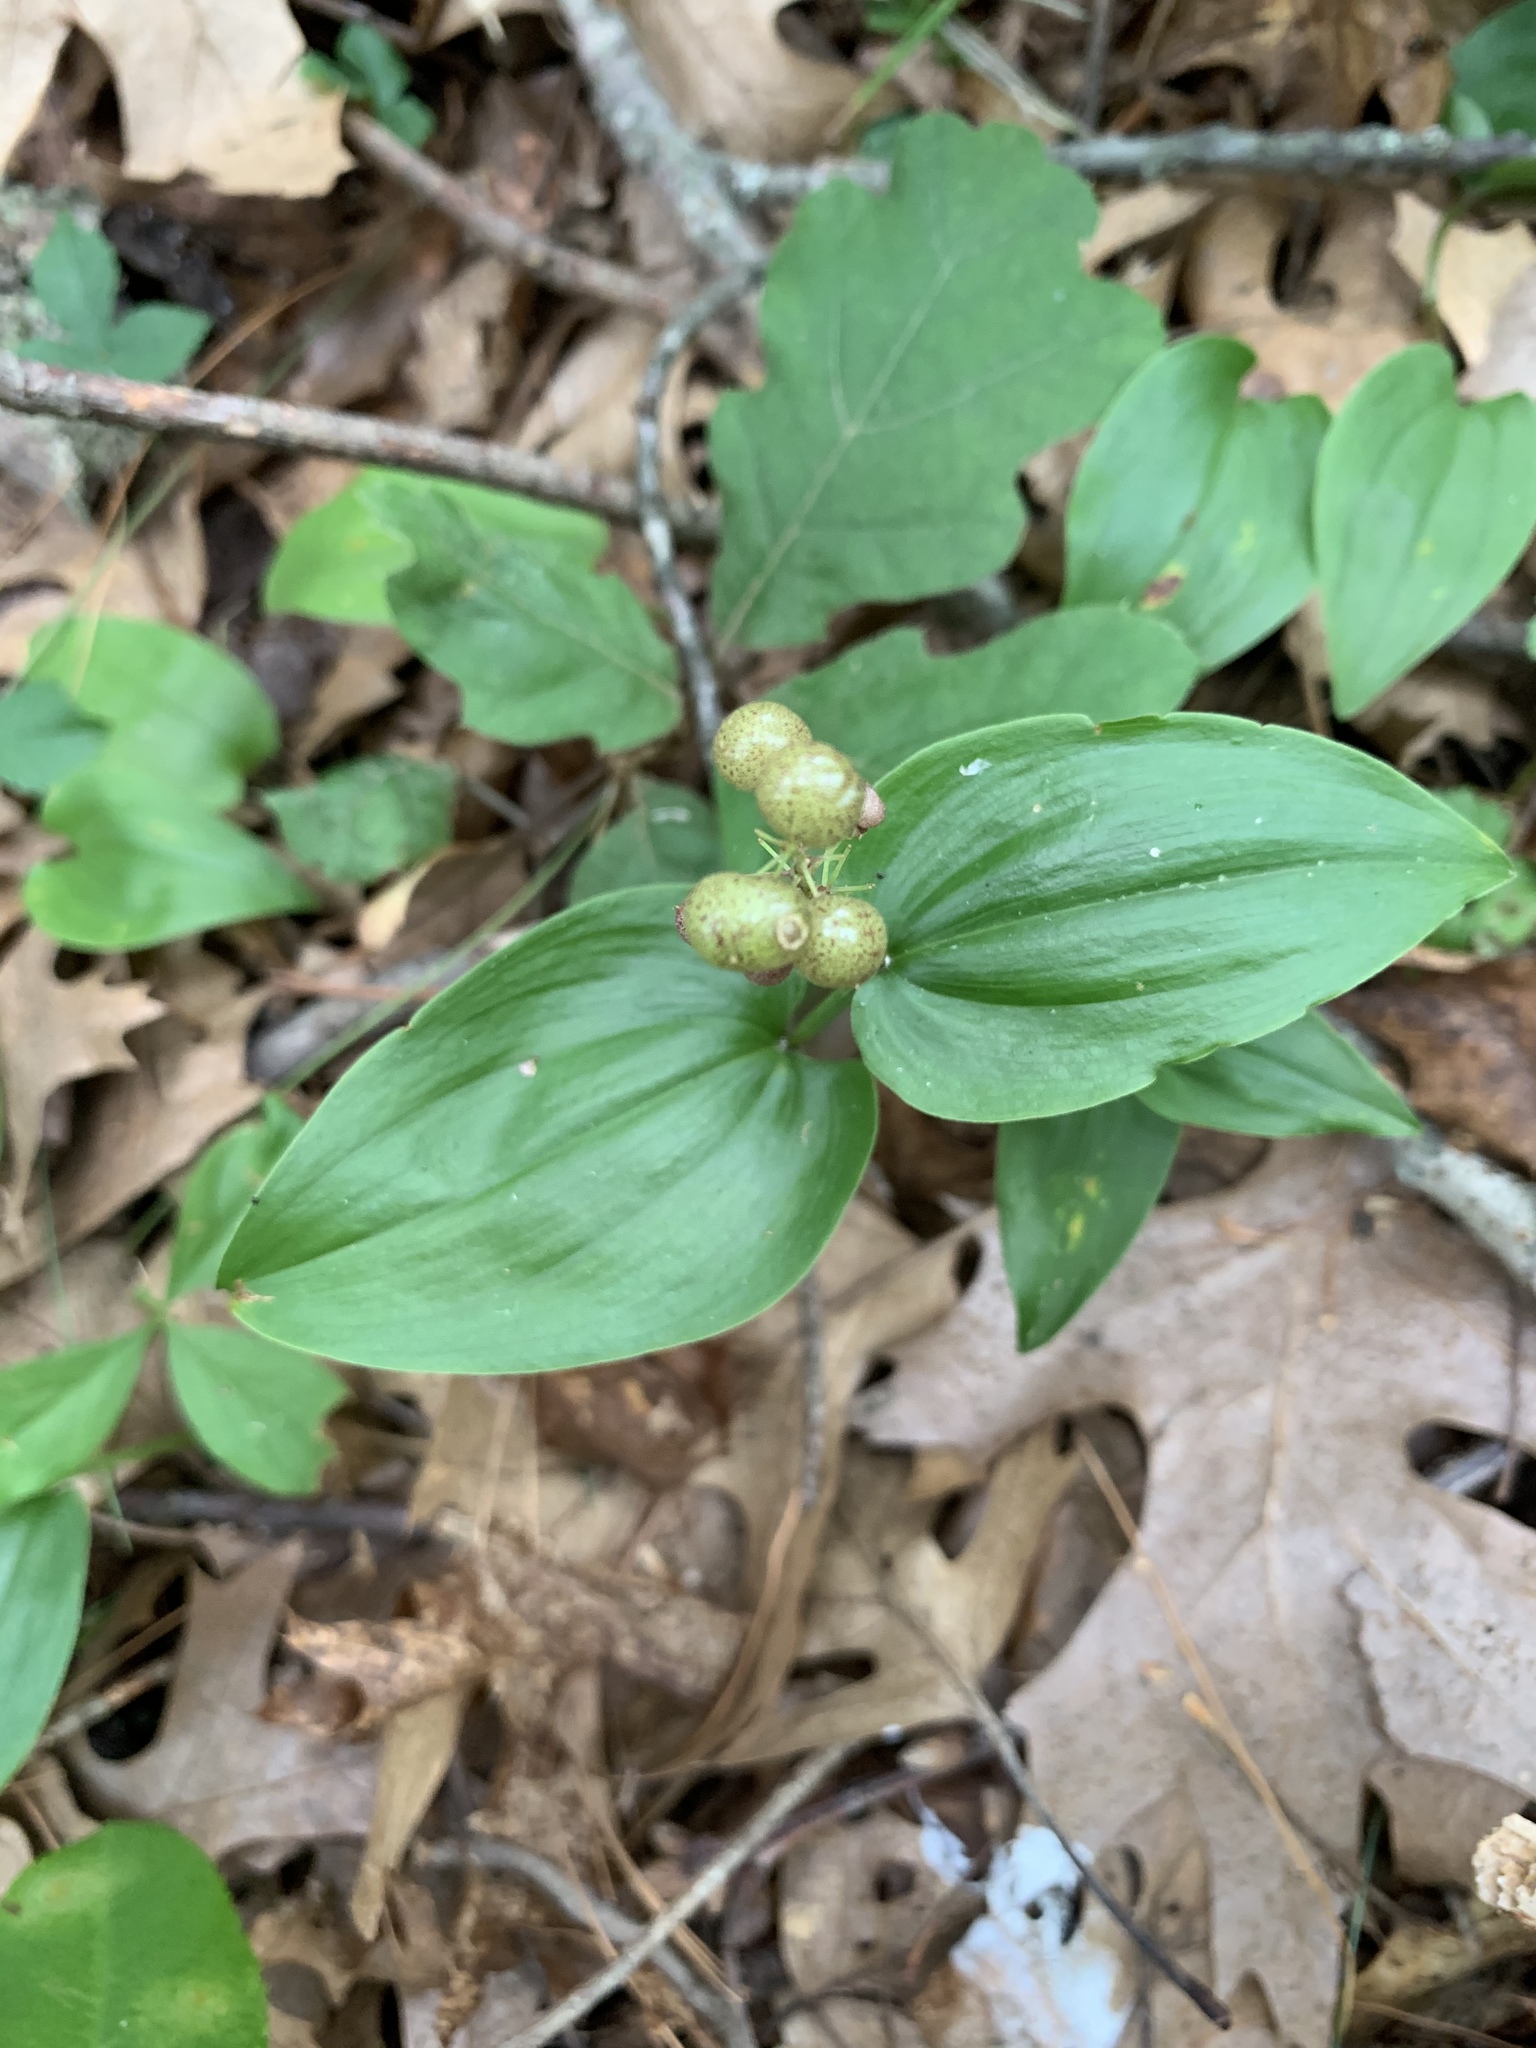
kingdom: Plantae
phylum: Tracheophyta
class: Liliopsida
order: Asparagales
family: Asparagaceae
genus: Maianthemum
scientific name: Maianthemum canadense
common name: False lily-of-the-valley
